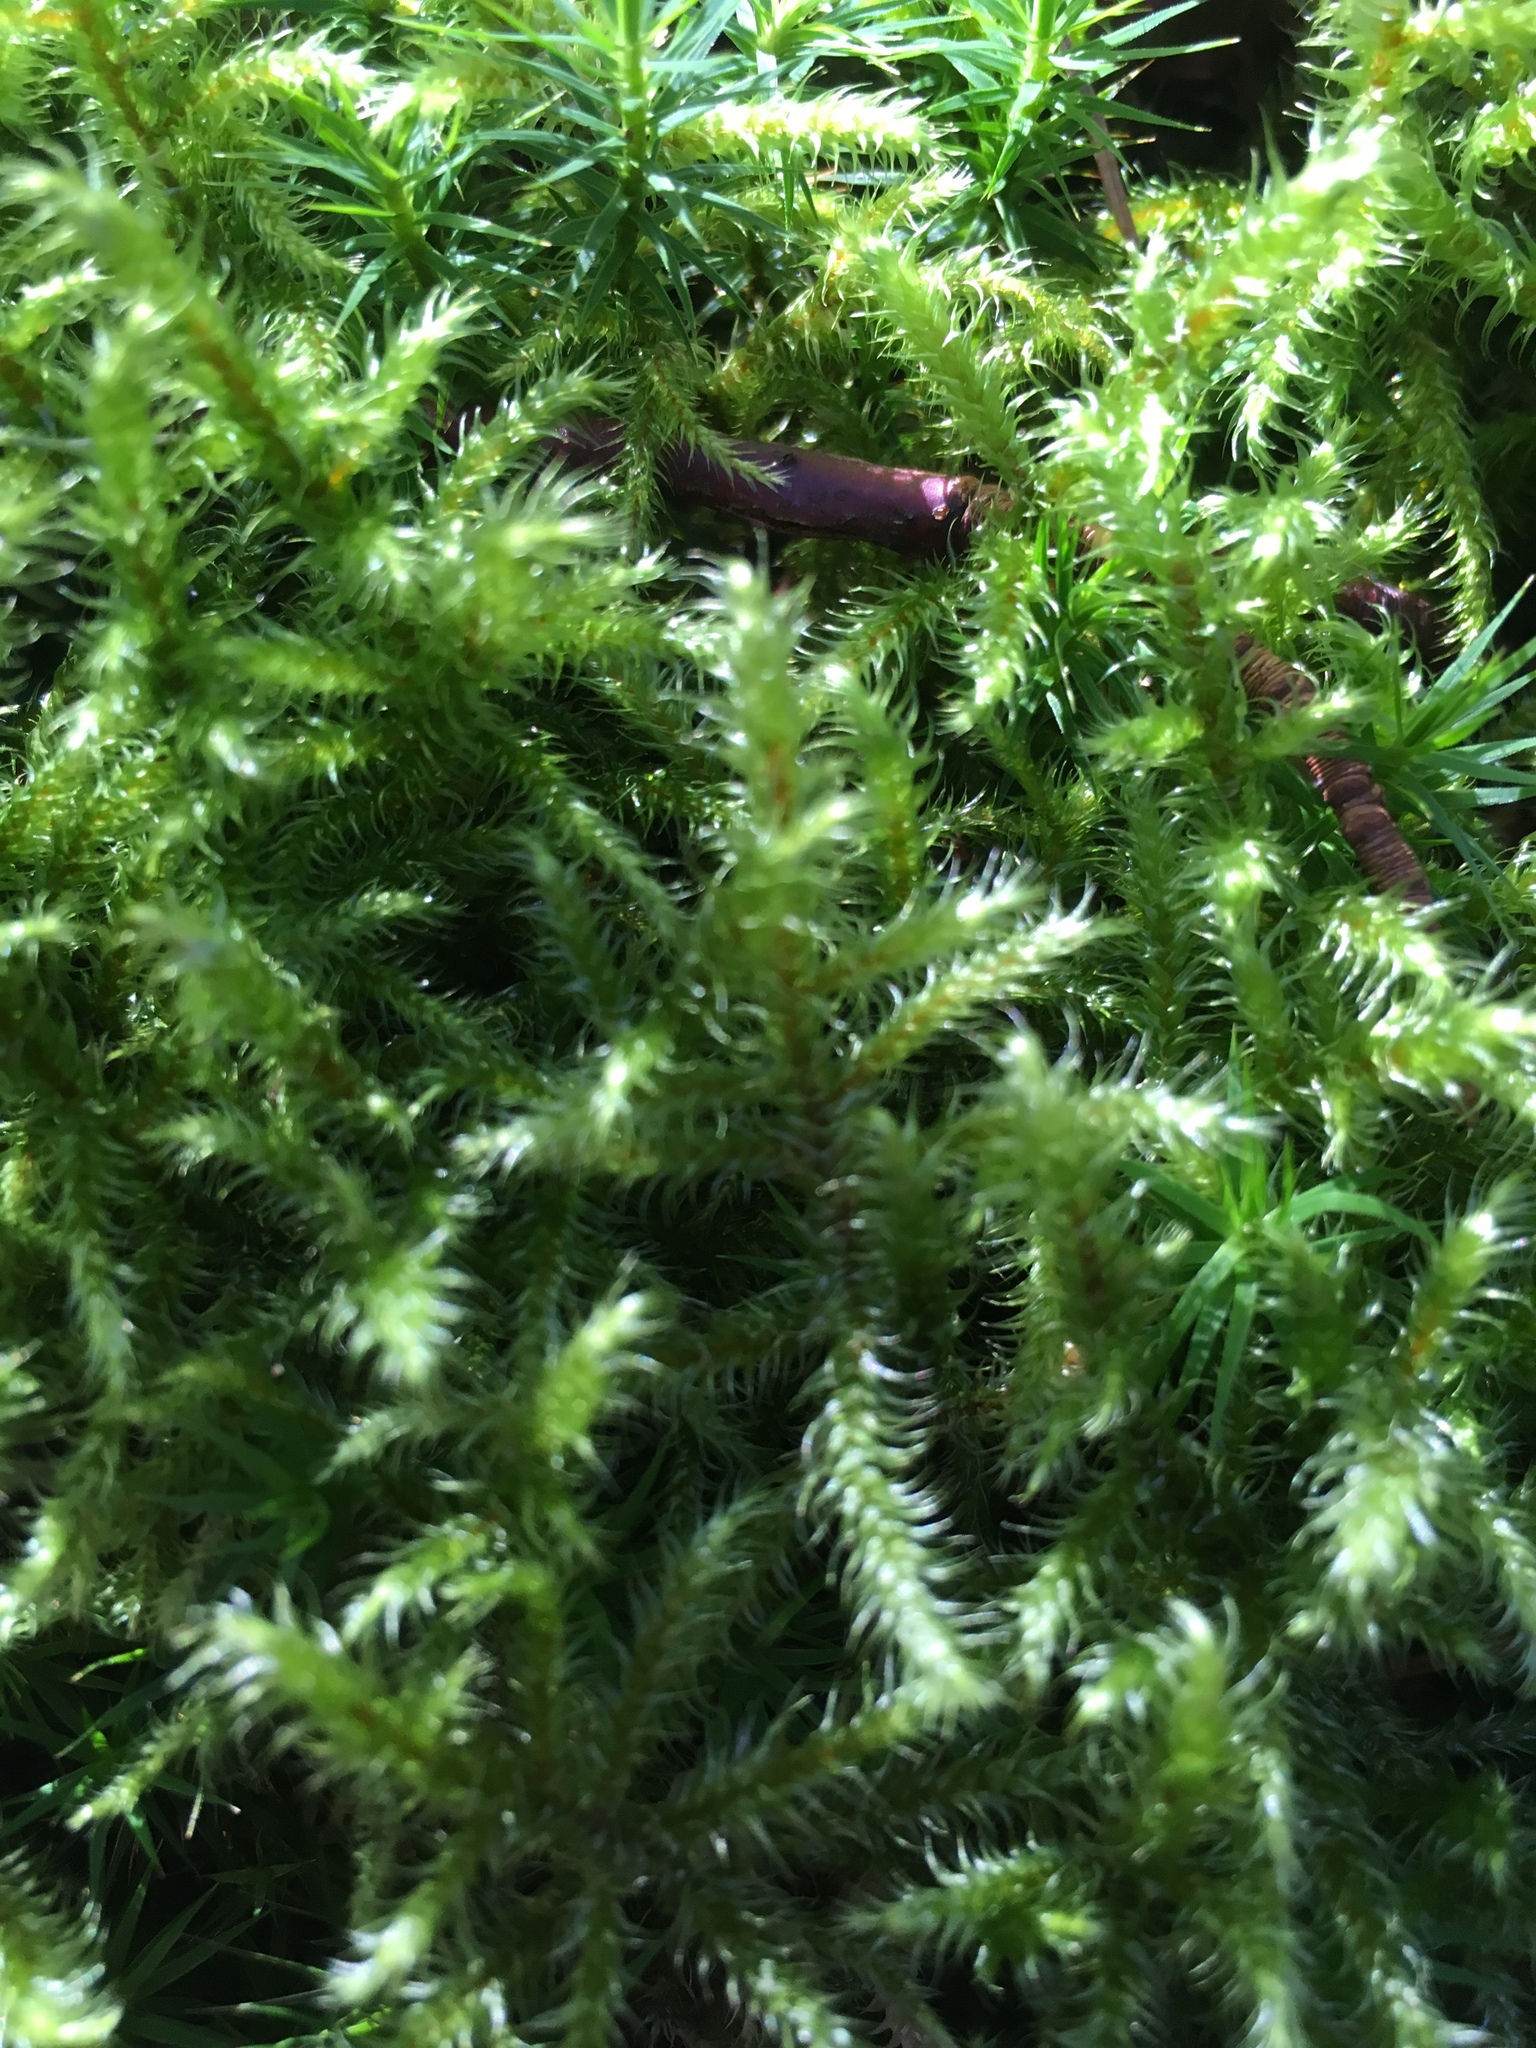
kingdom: Plantae
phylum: Bryophyta
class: Bryopsida
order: Hypnales
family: Hylocomiaceae
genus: Rhytidiadelphus
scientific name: Rhytidiadelphus loreus
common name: Lanky moss
